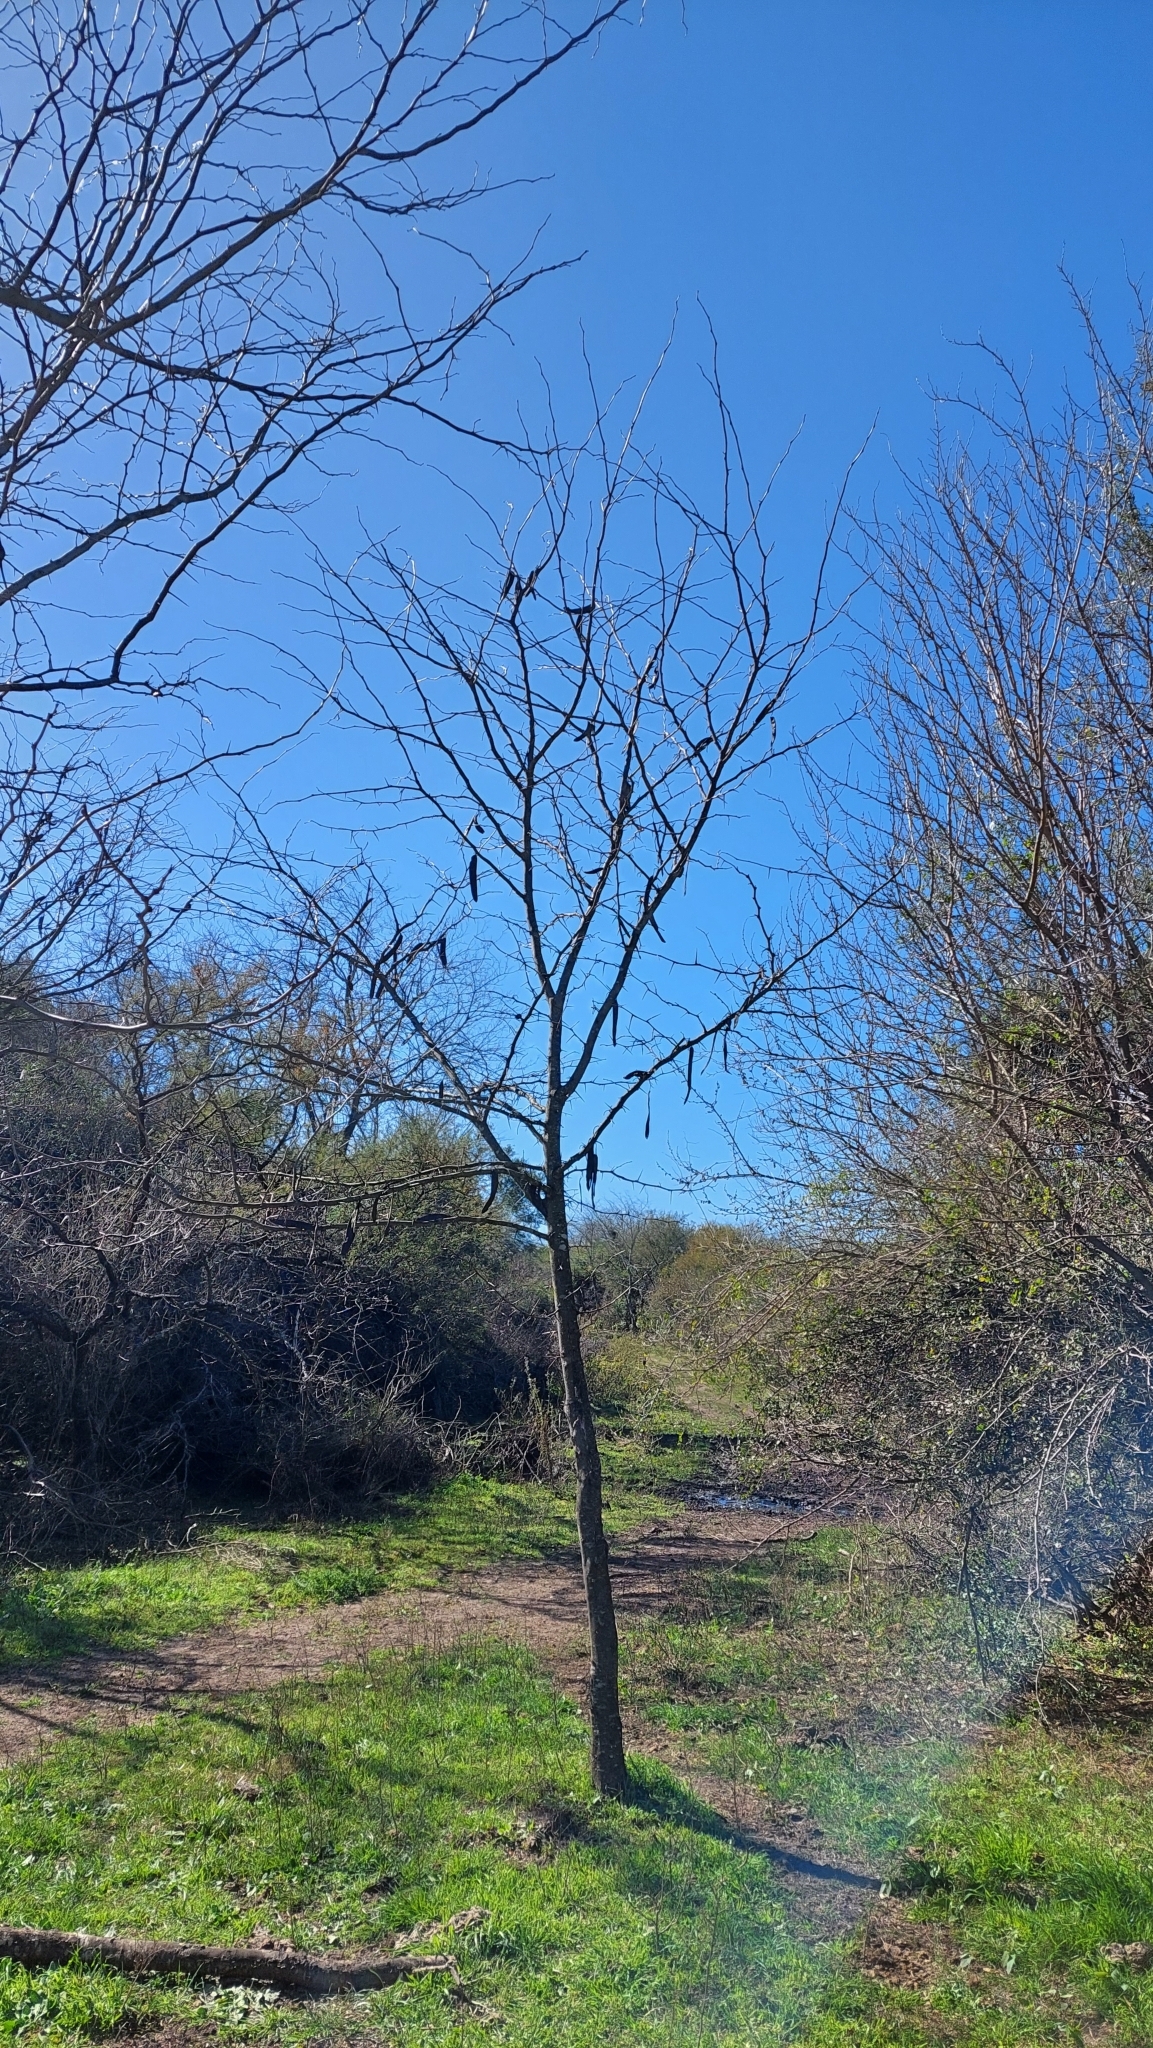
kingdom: Plantae
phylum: Tracheophyta
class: Magnoliopsida
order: Fabales
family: Fabaceae
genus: Gleditsia
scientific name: Gleditsia triacanthos
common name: Common honeylocust
